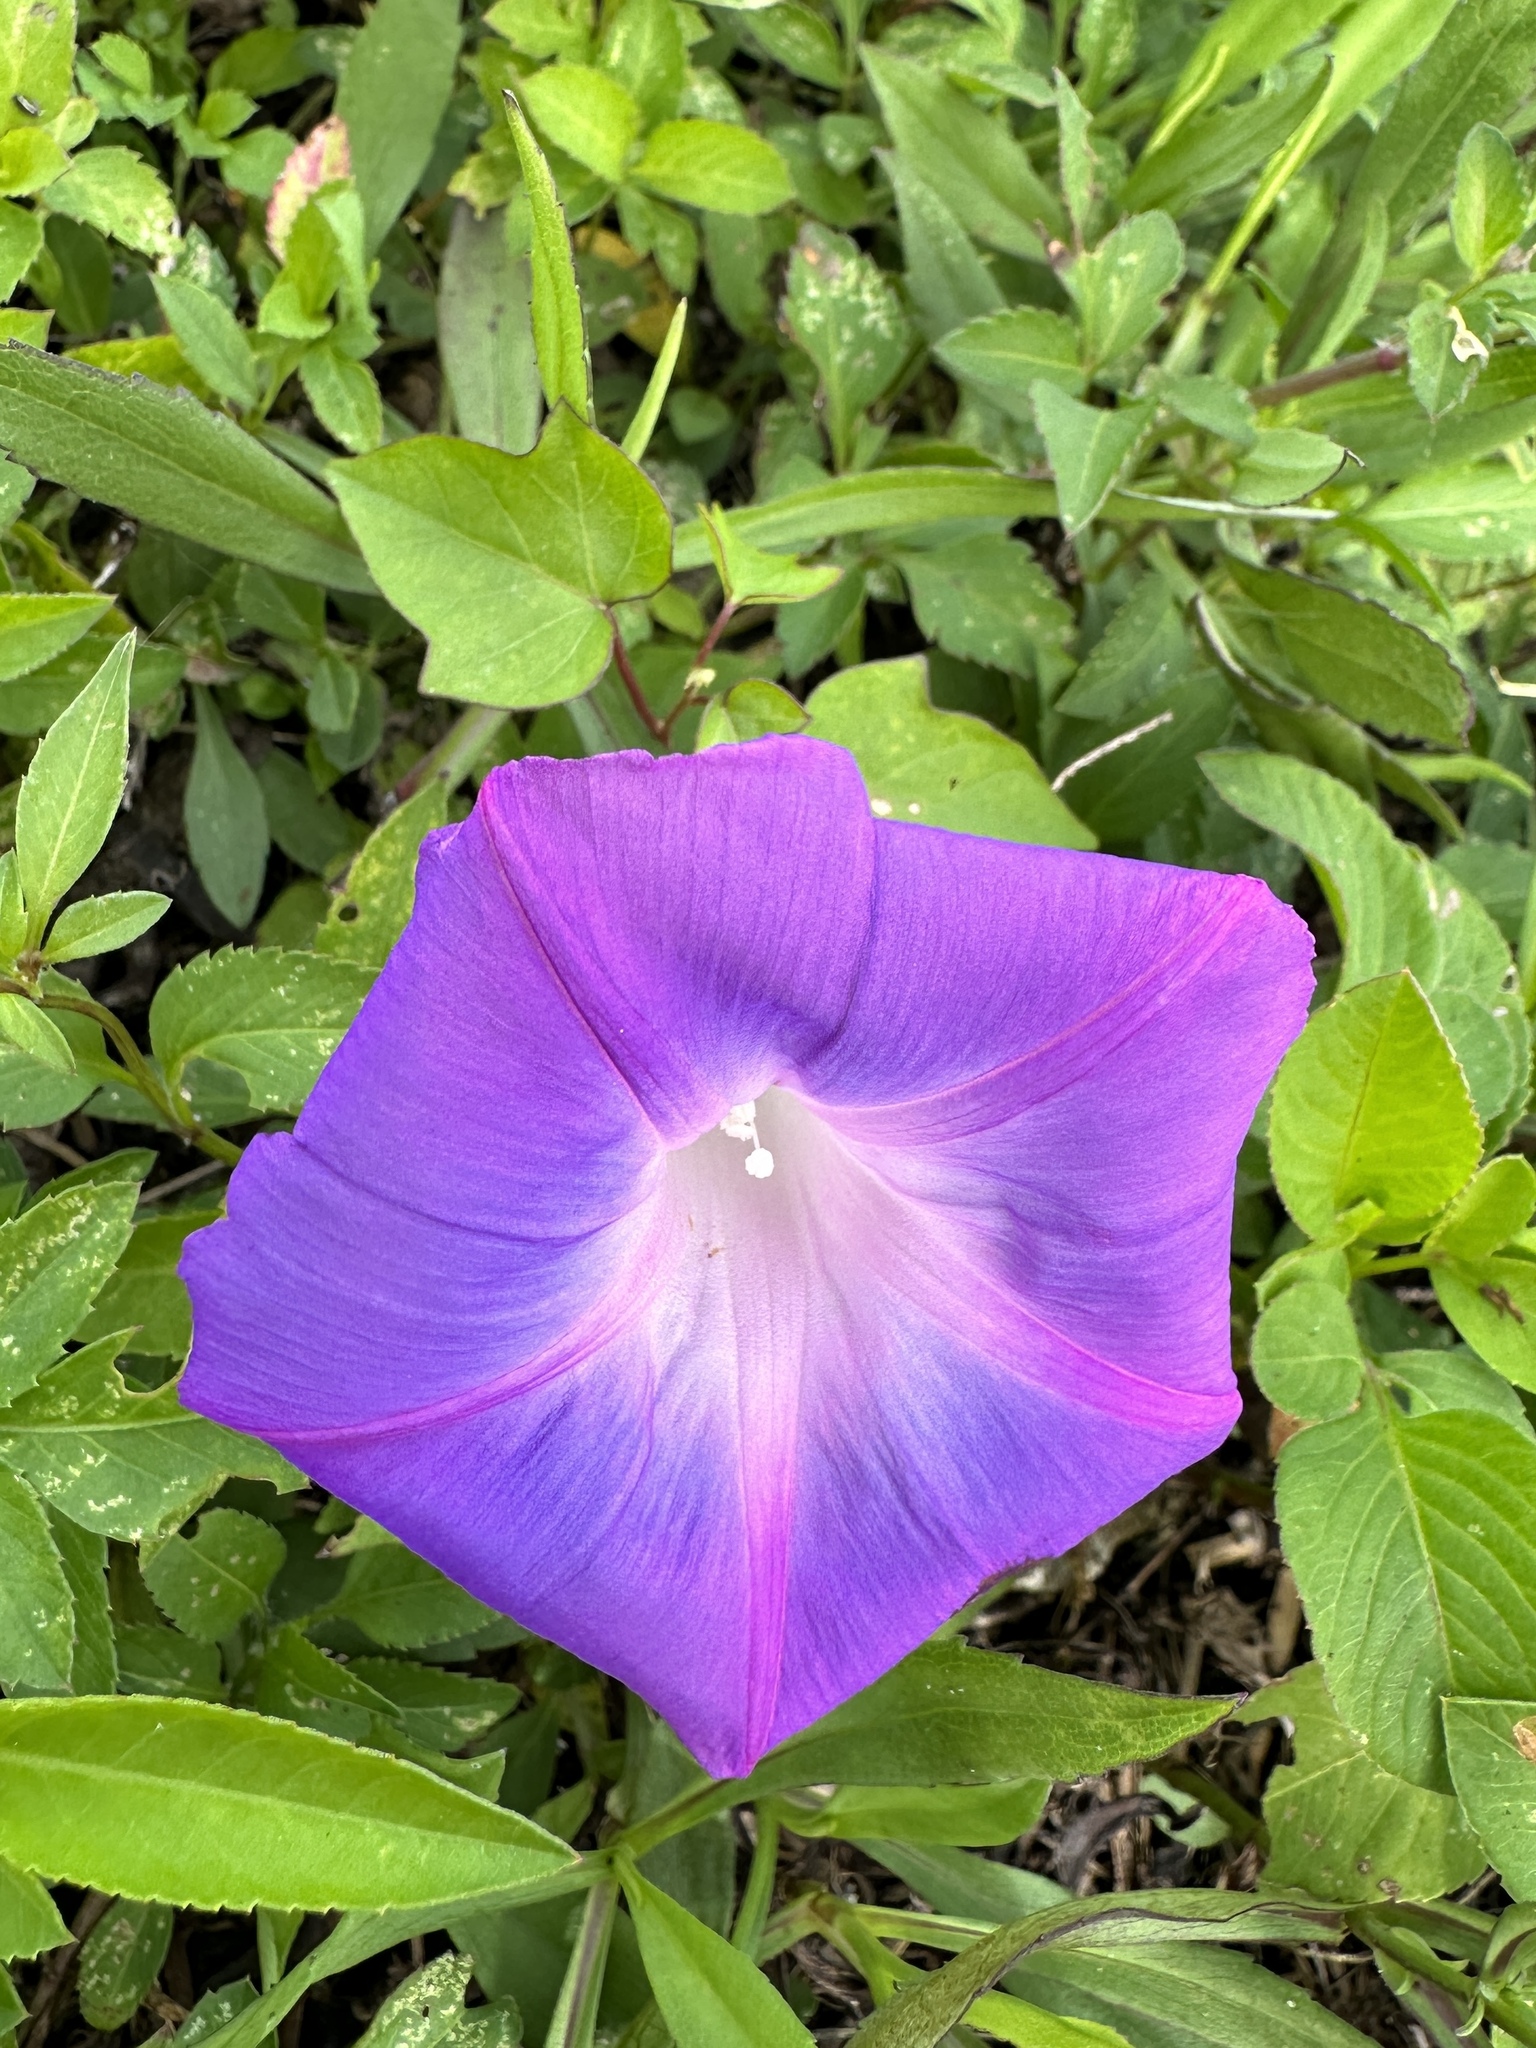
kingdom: Plantae
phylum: Tracheophyta
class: Magnoliopsida
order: Solanales
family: Convolvulaceae
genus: Ipomoea
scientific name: Ipomoea indica
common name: Blue dawnflower
